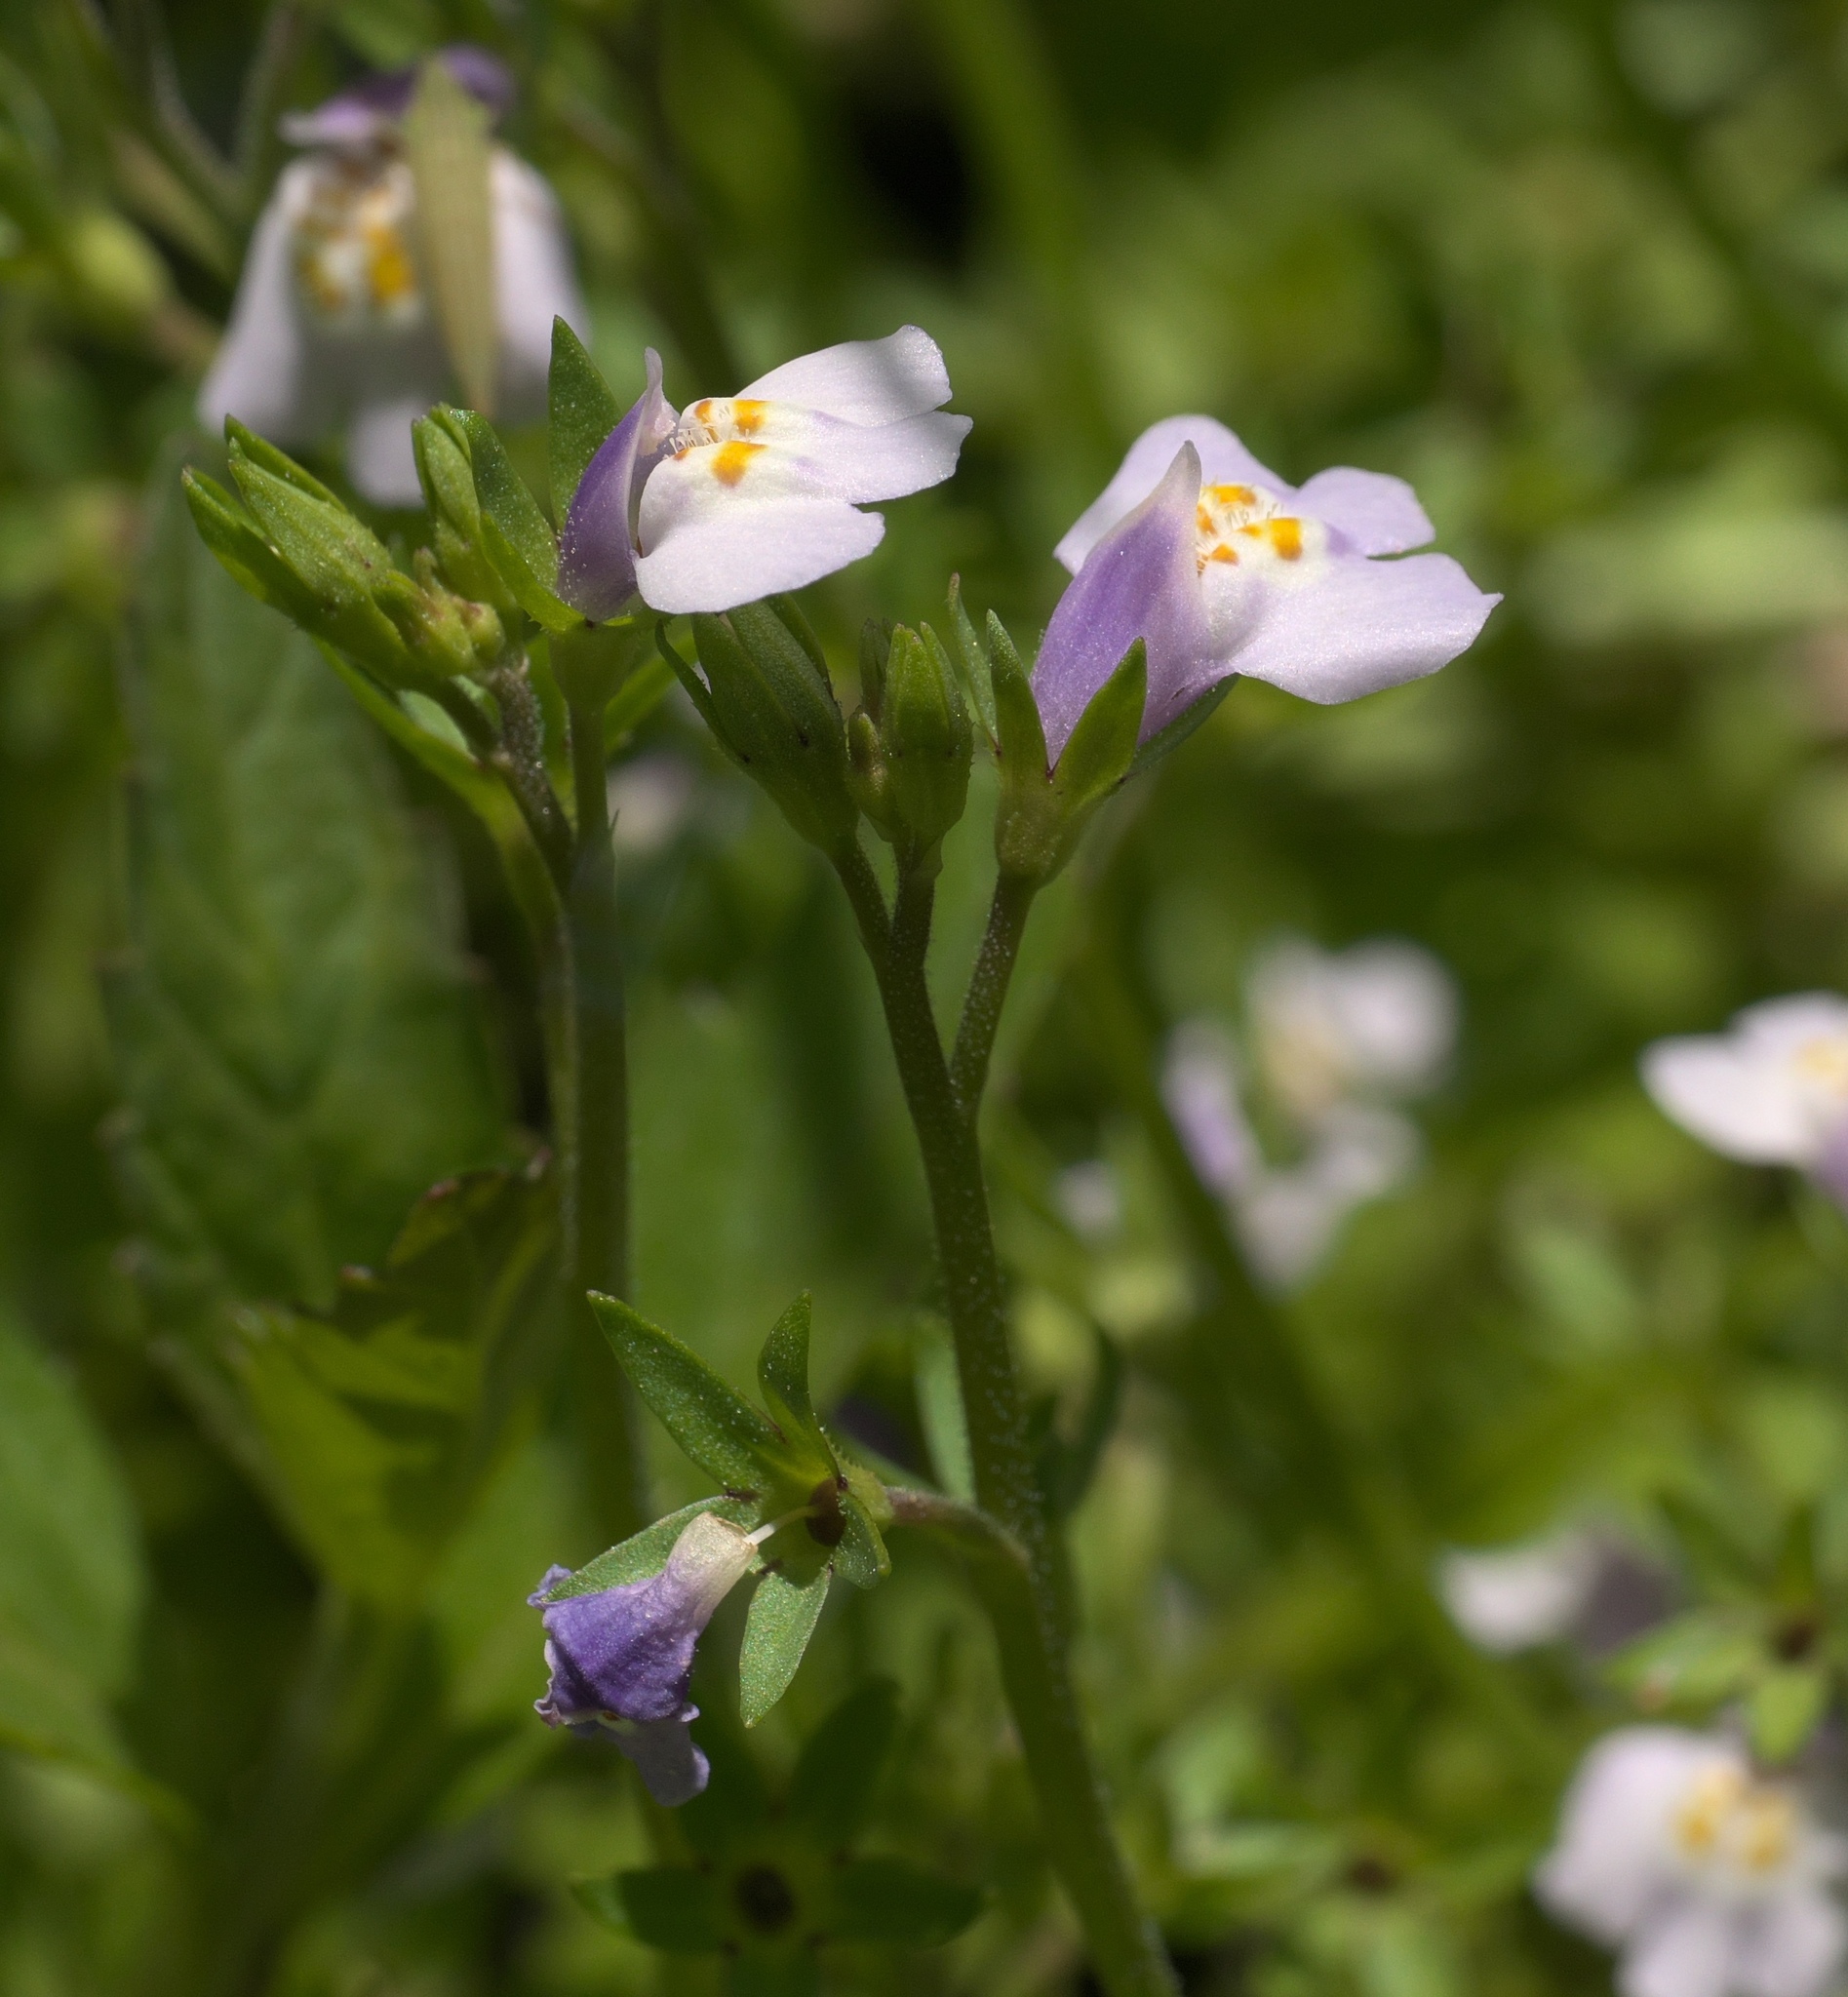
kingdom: Plantae
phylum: Tracheophyta
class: Magnoliopsida
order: Lamiales
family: Mazaceae
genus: Mazus
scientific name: Mazus pumilus
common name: Japanese mazus
